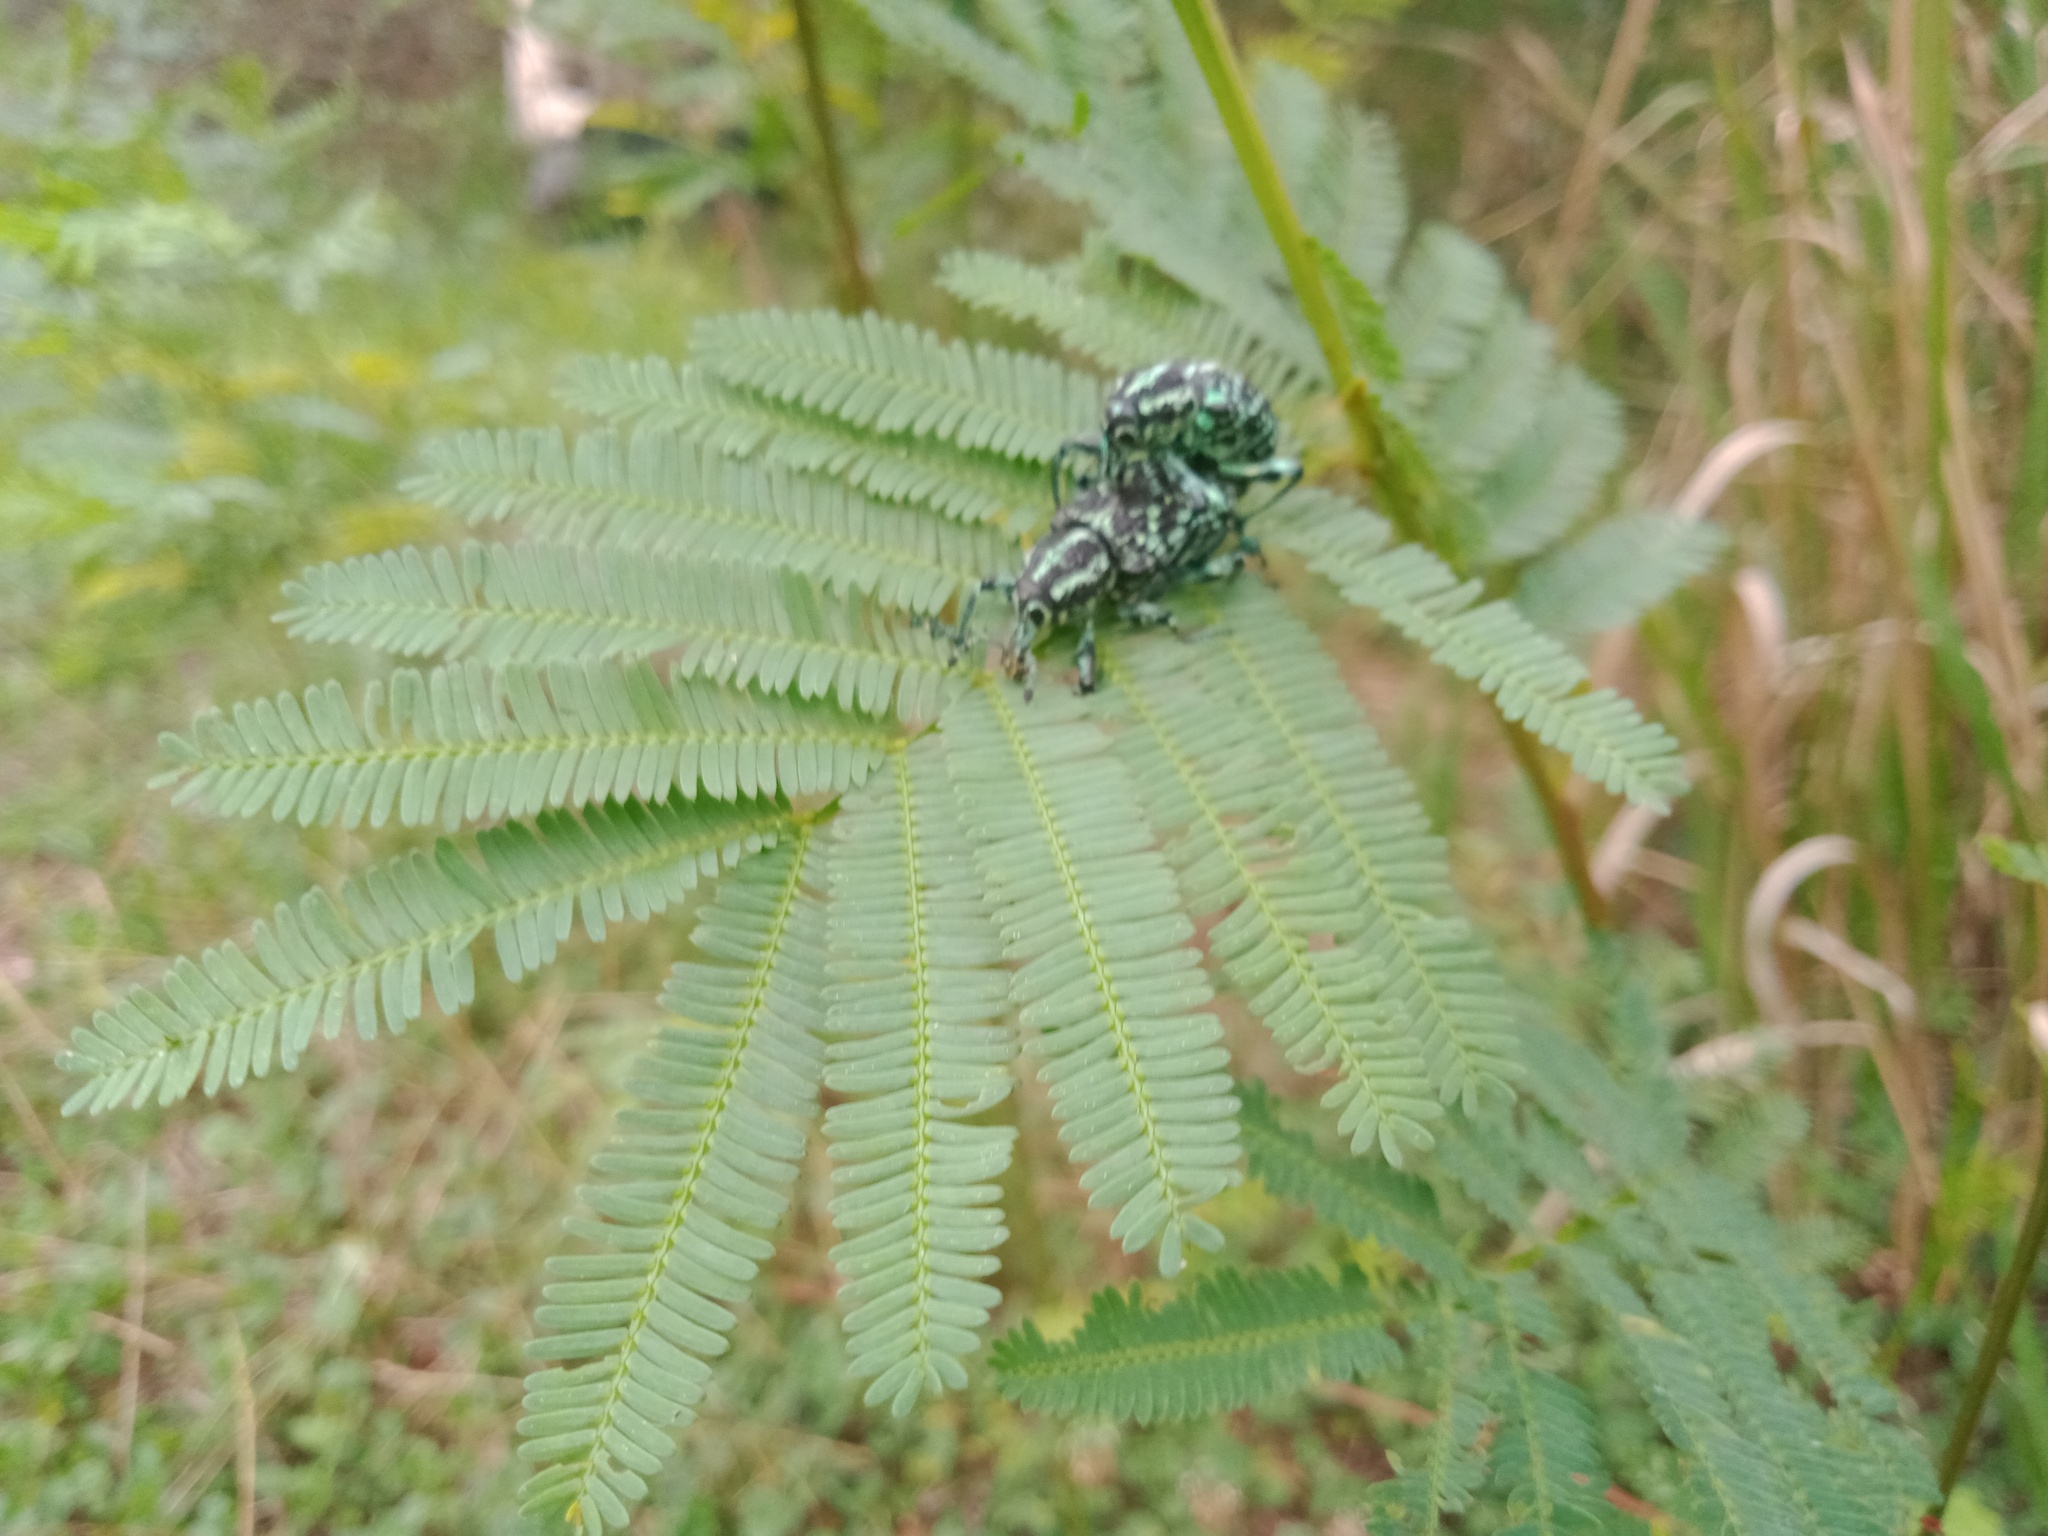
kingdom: Animalia
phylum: Arthropoda
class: Insecta
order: Coleoptera
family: Curculionidae
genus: Chrysolopus
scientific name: Chrysolopus spectabilis
